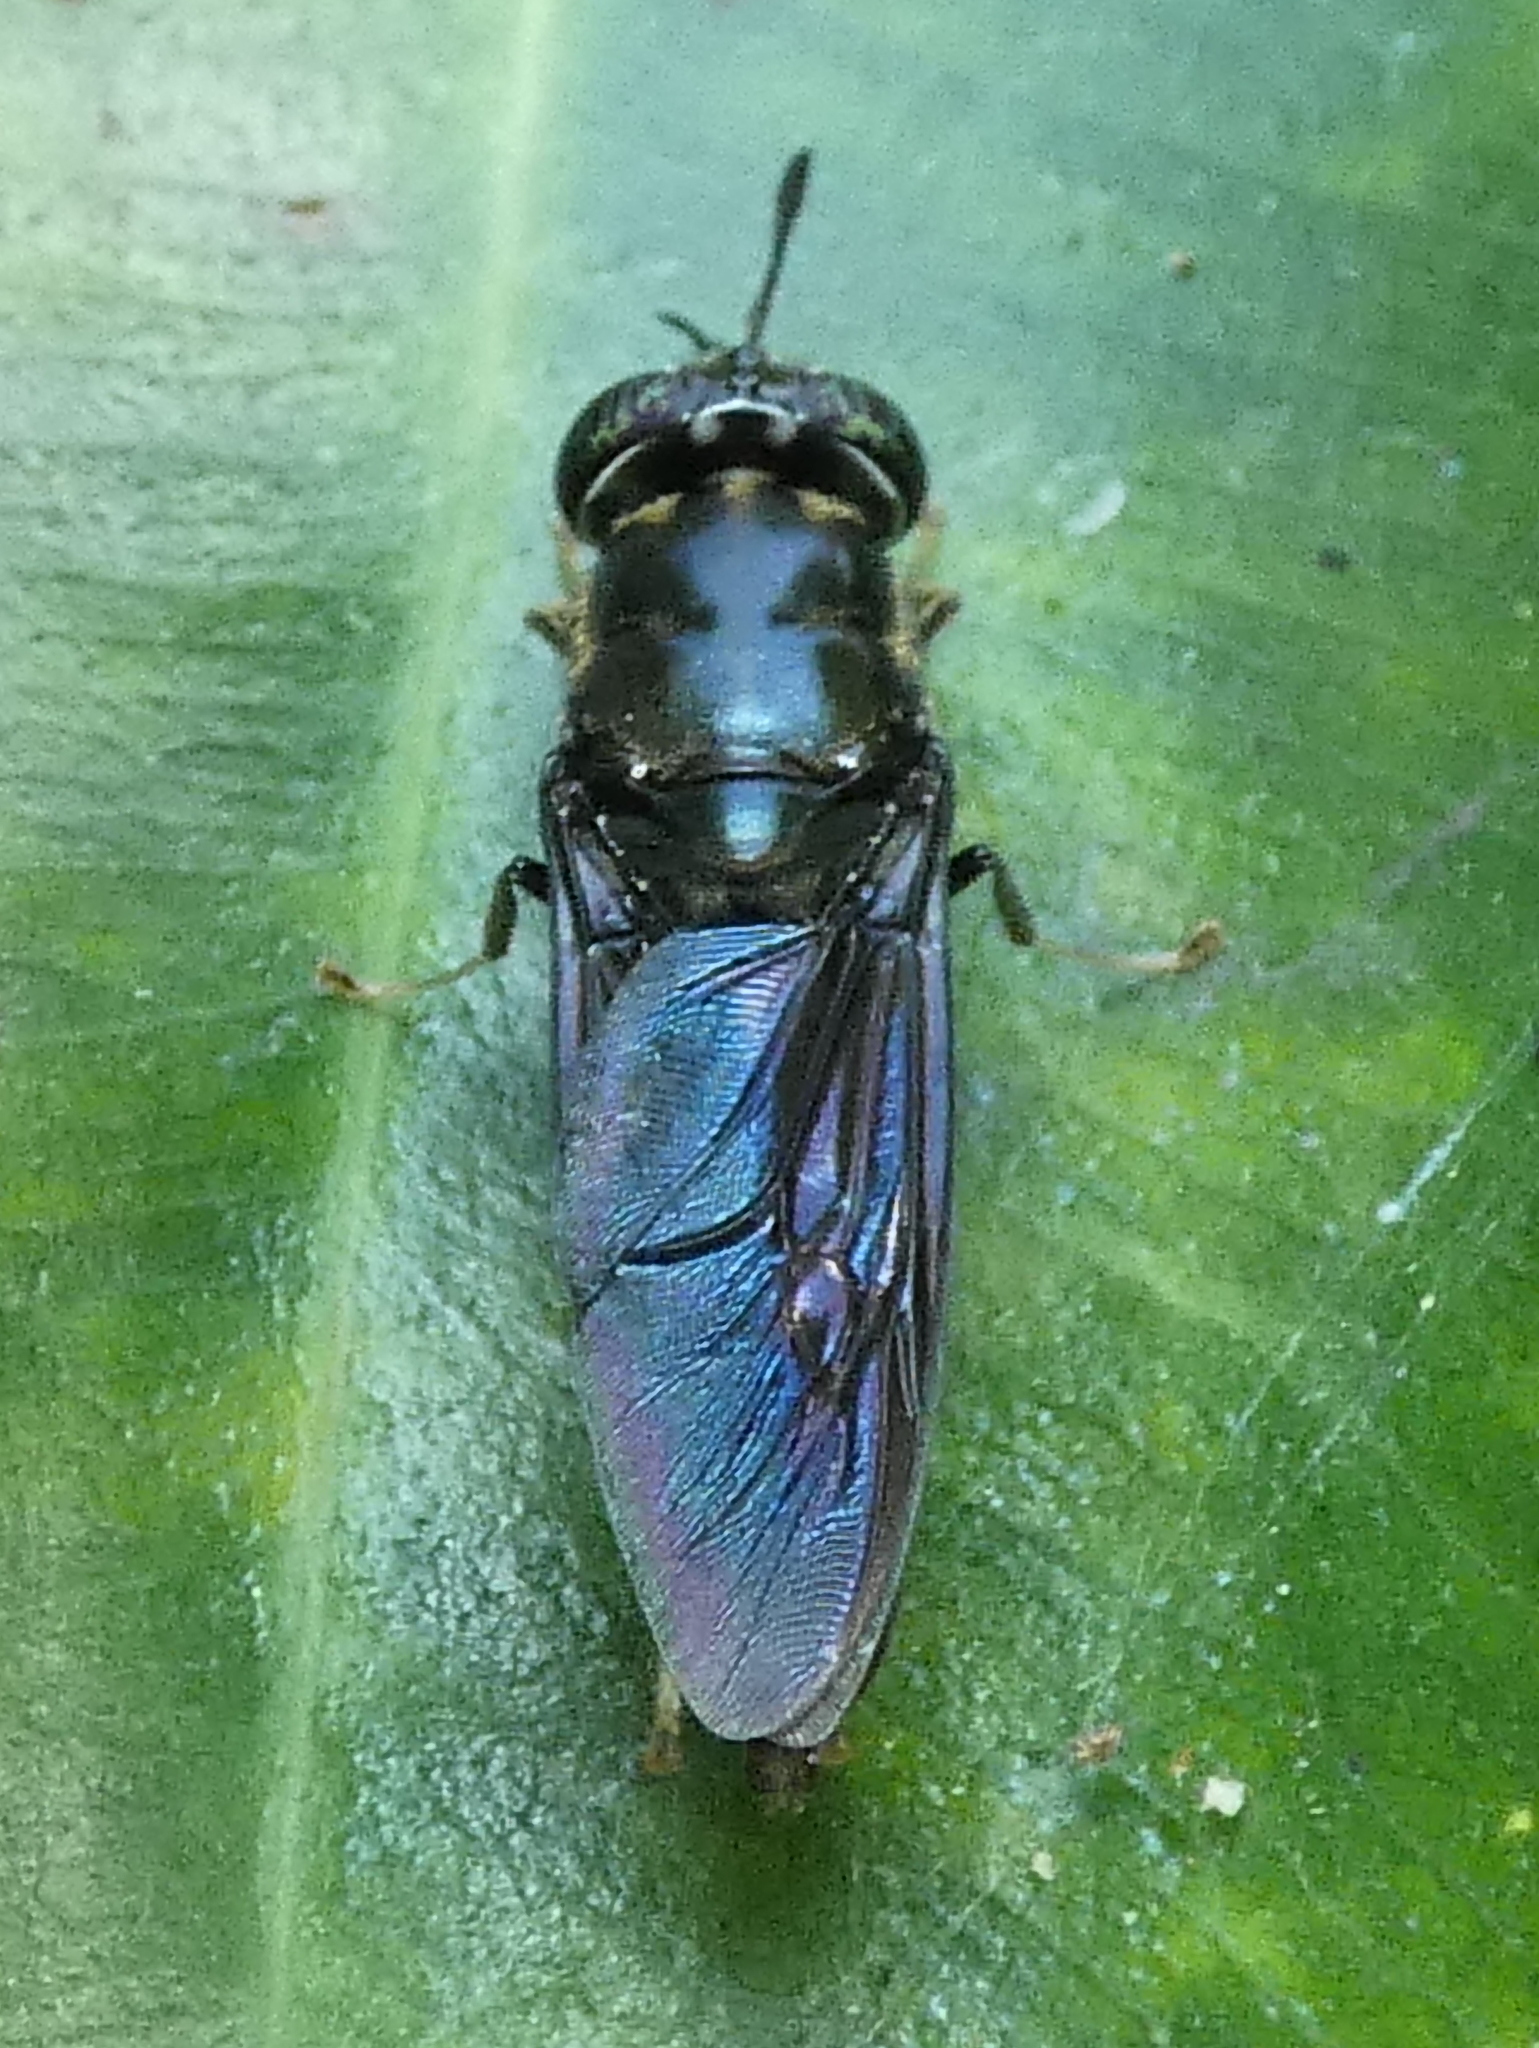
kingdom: Animalia
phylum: Arthropoda
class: Insecta
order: Diptera
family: Stratiomyidae
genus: Hermetia
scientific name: Hermetia illucens
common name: Black soldier fly
